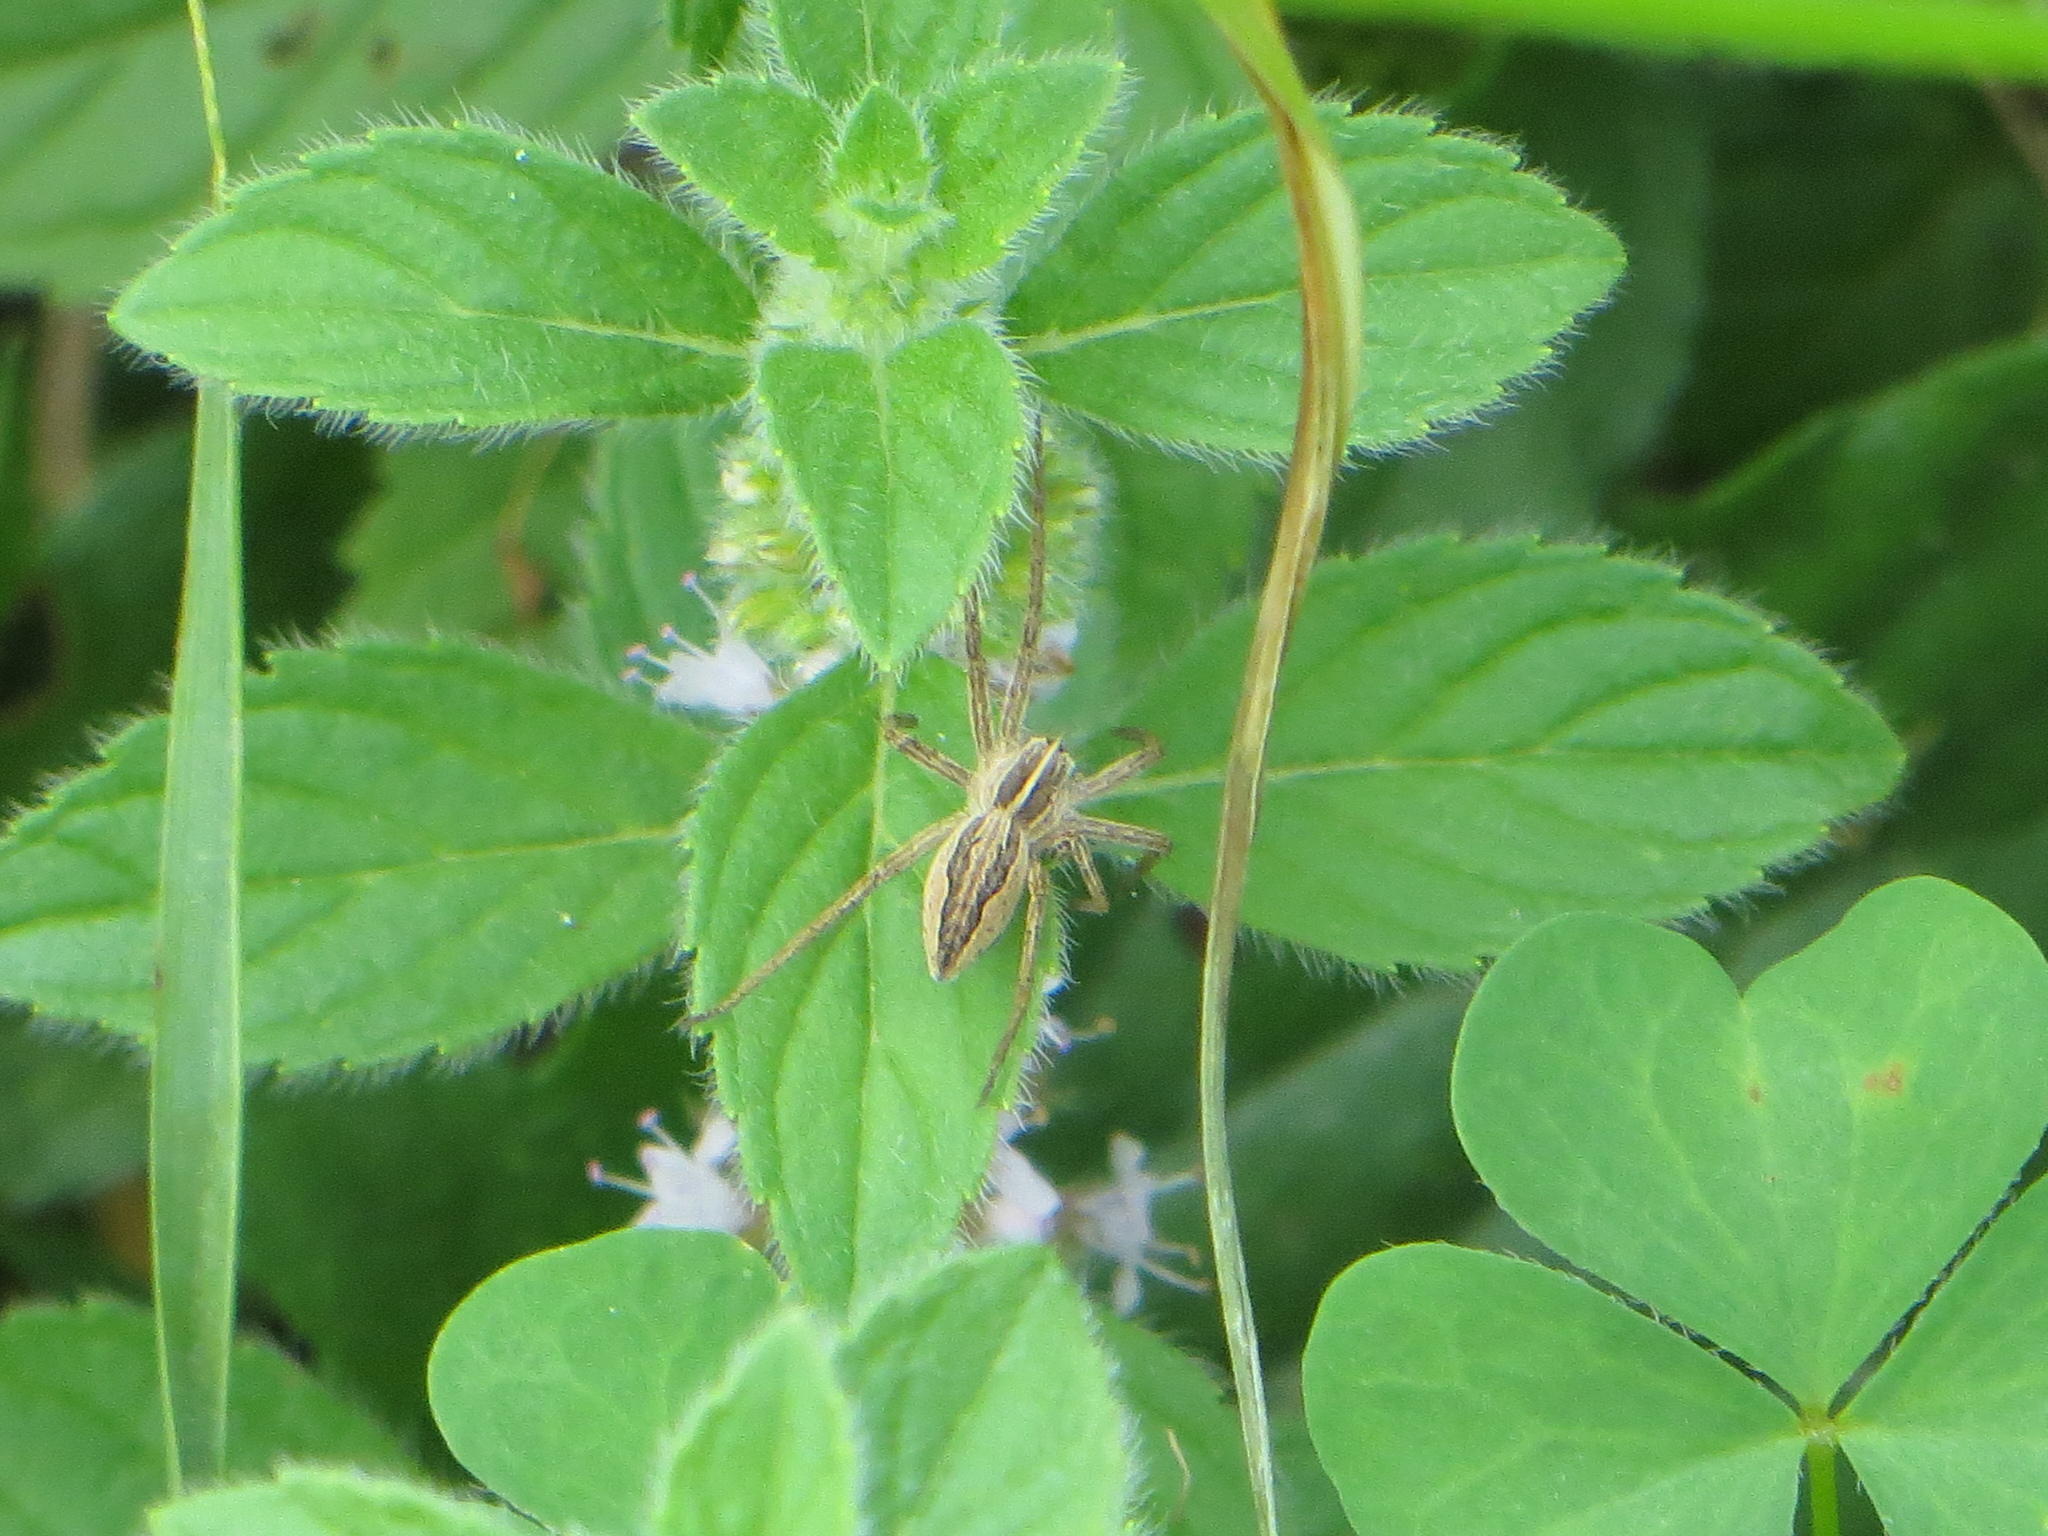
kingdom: Animalia
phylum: Arthropoda
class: Arachnida
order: Araneae
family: Pisauridae
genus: Pisaura
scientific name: Pisaura mirabilis
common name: Tent spider
